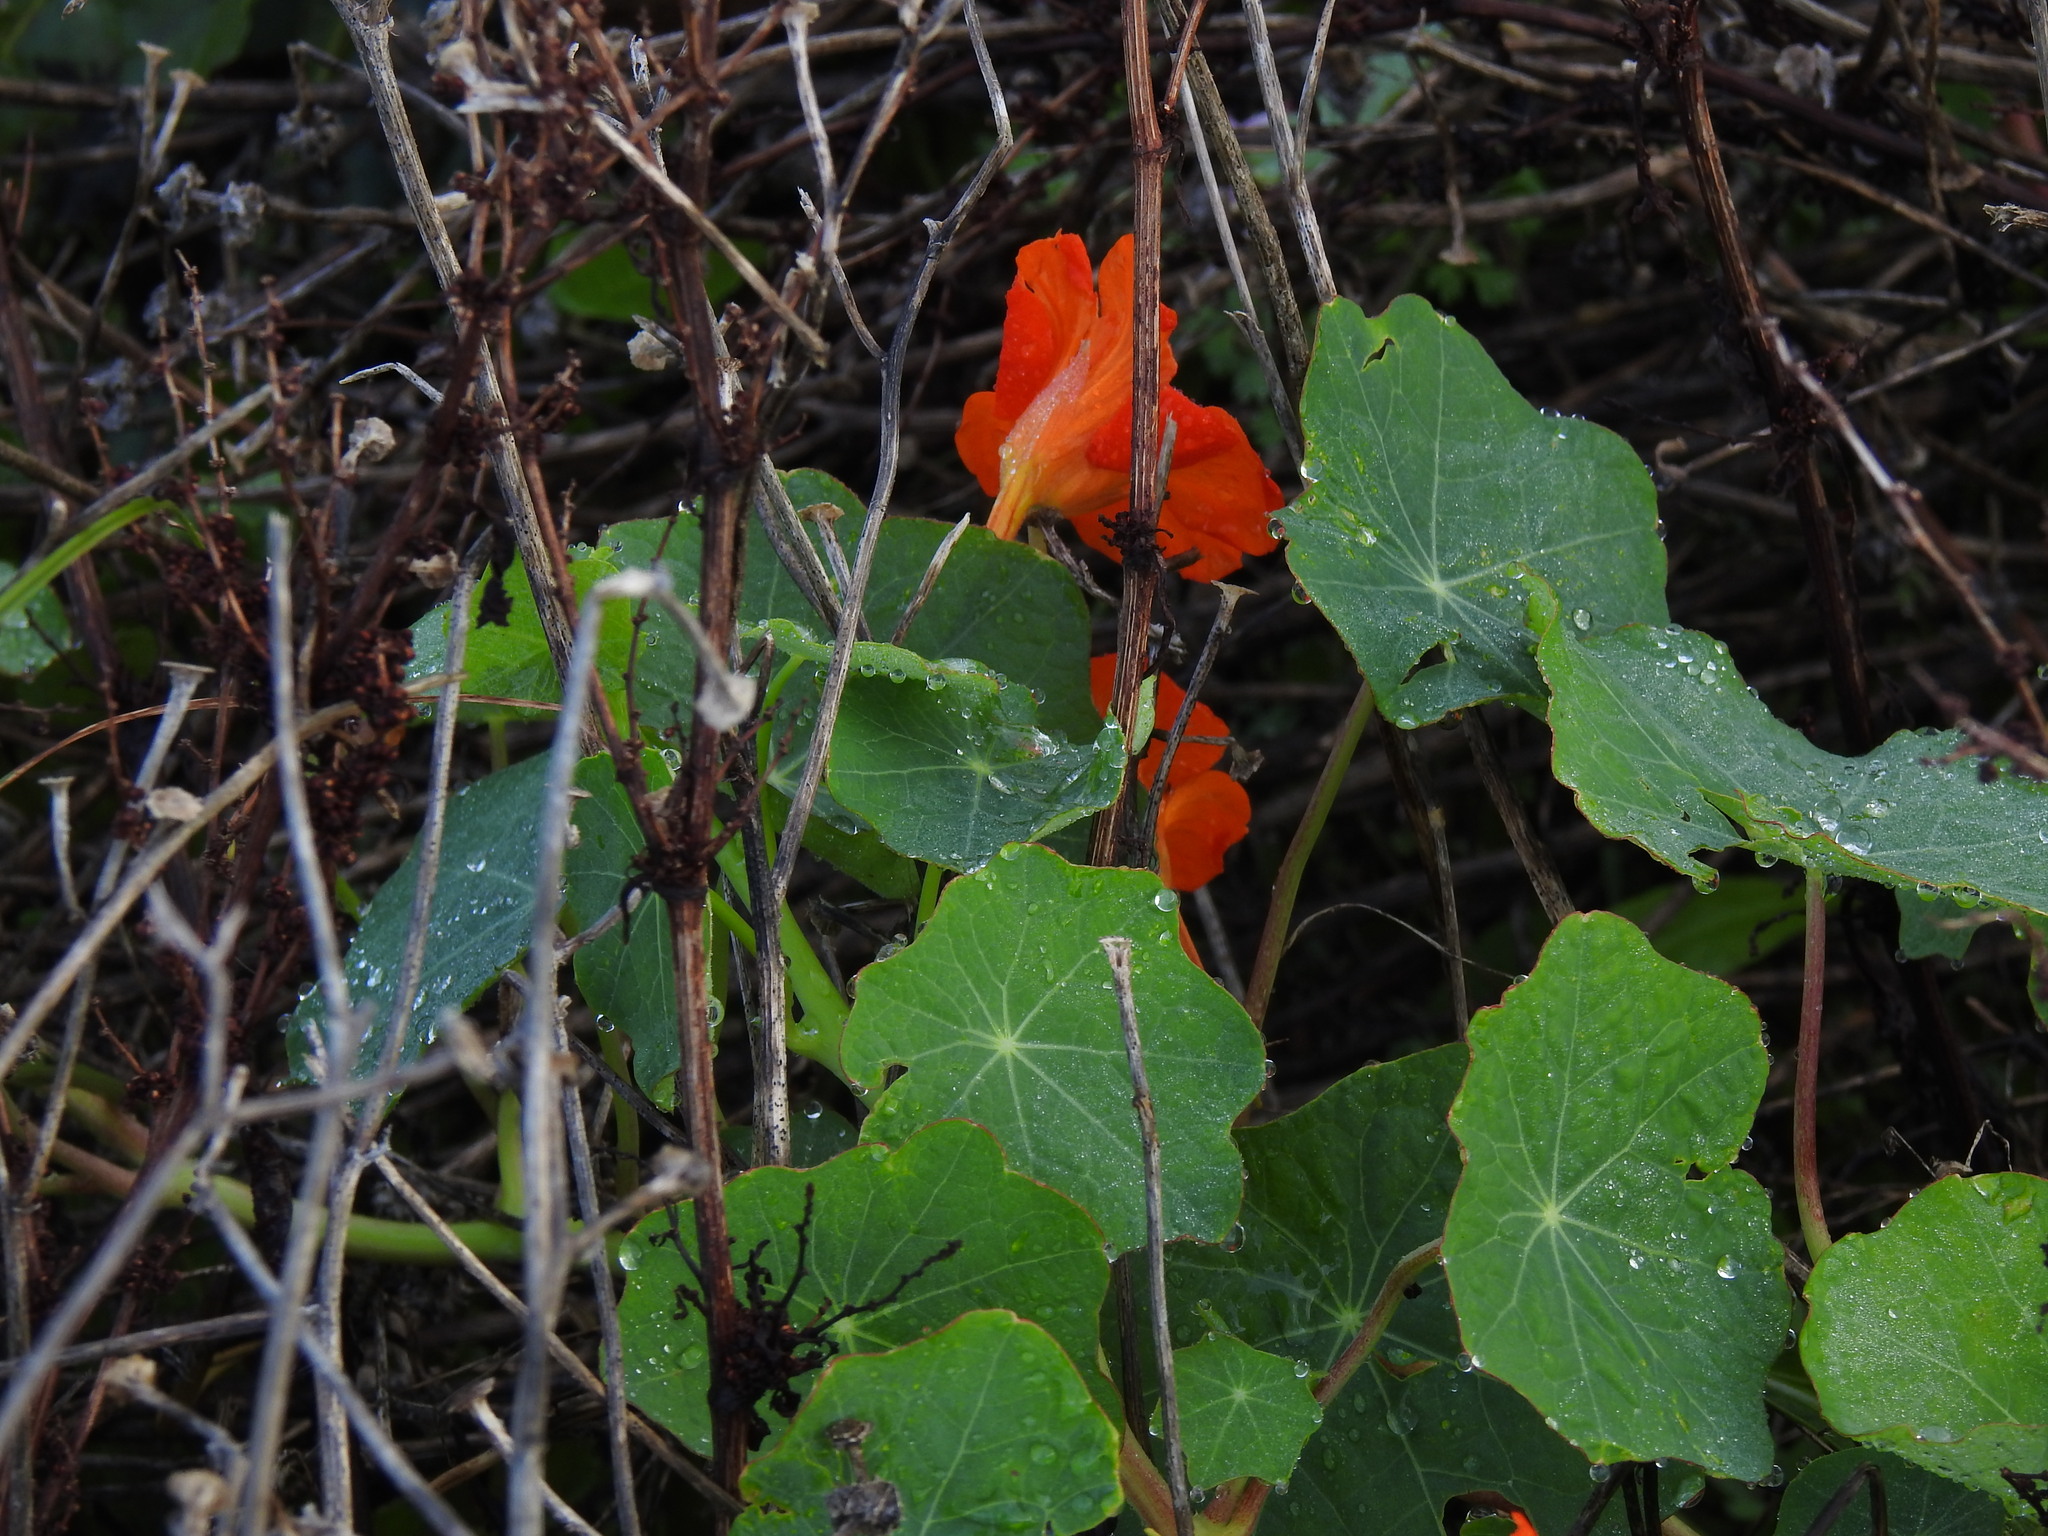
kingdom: Plantae
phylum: Tracheophyta
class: Magnoliopsida
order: Brassicales
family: Tropaeolaceae
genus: Tropaeolum
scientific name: Tropaeolum majus
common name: Nasturtium
